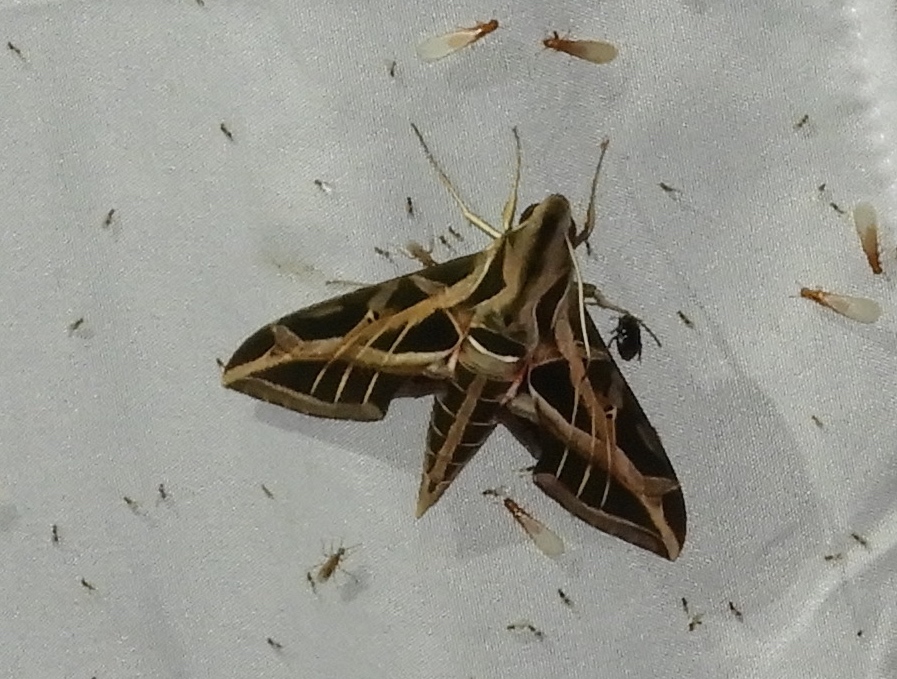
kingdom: Animalia
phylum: Arthropoda
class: Insecta
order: Lepidoptera
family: Sphingidae
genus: Eumorpha
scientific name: Eumorpha vitis
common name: Vine sphinx
